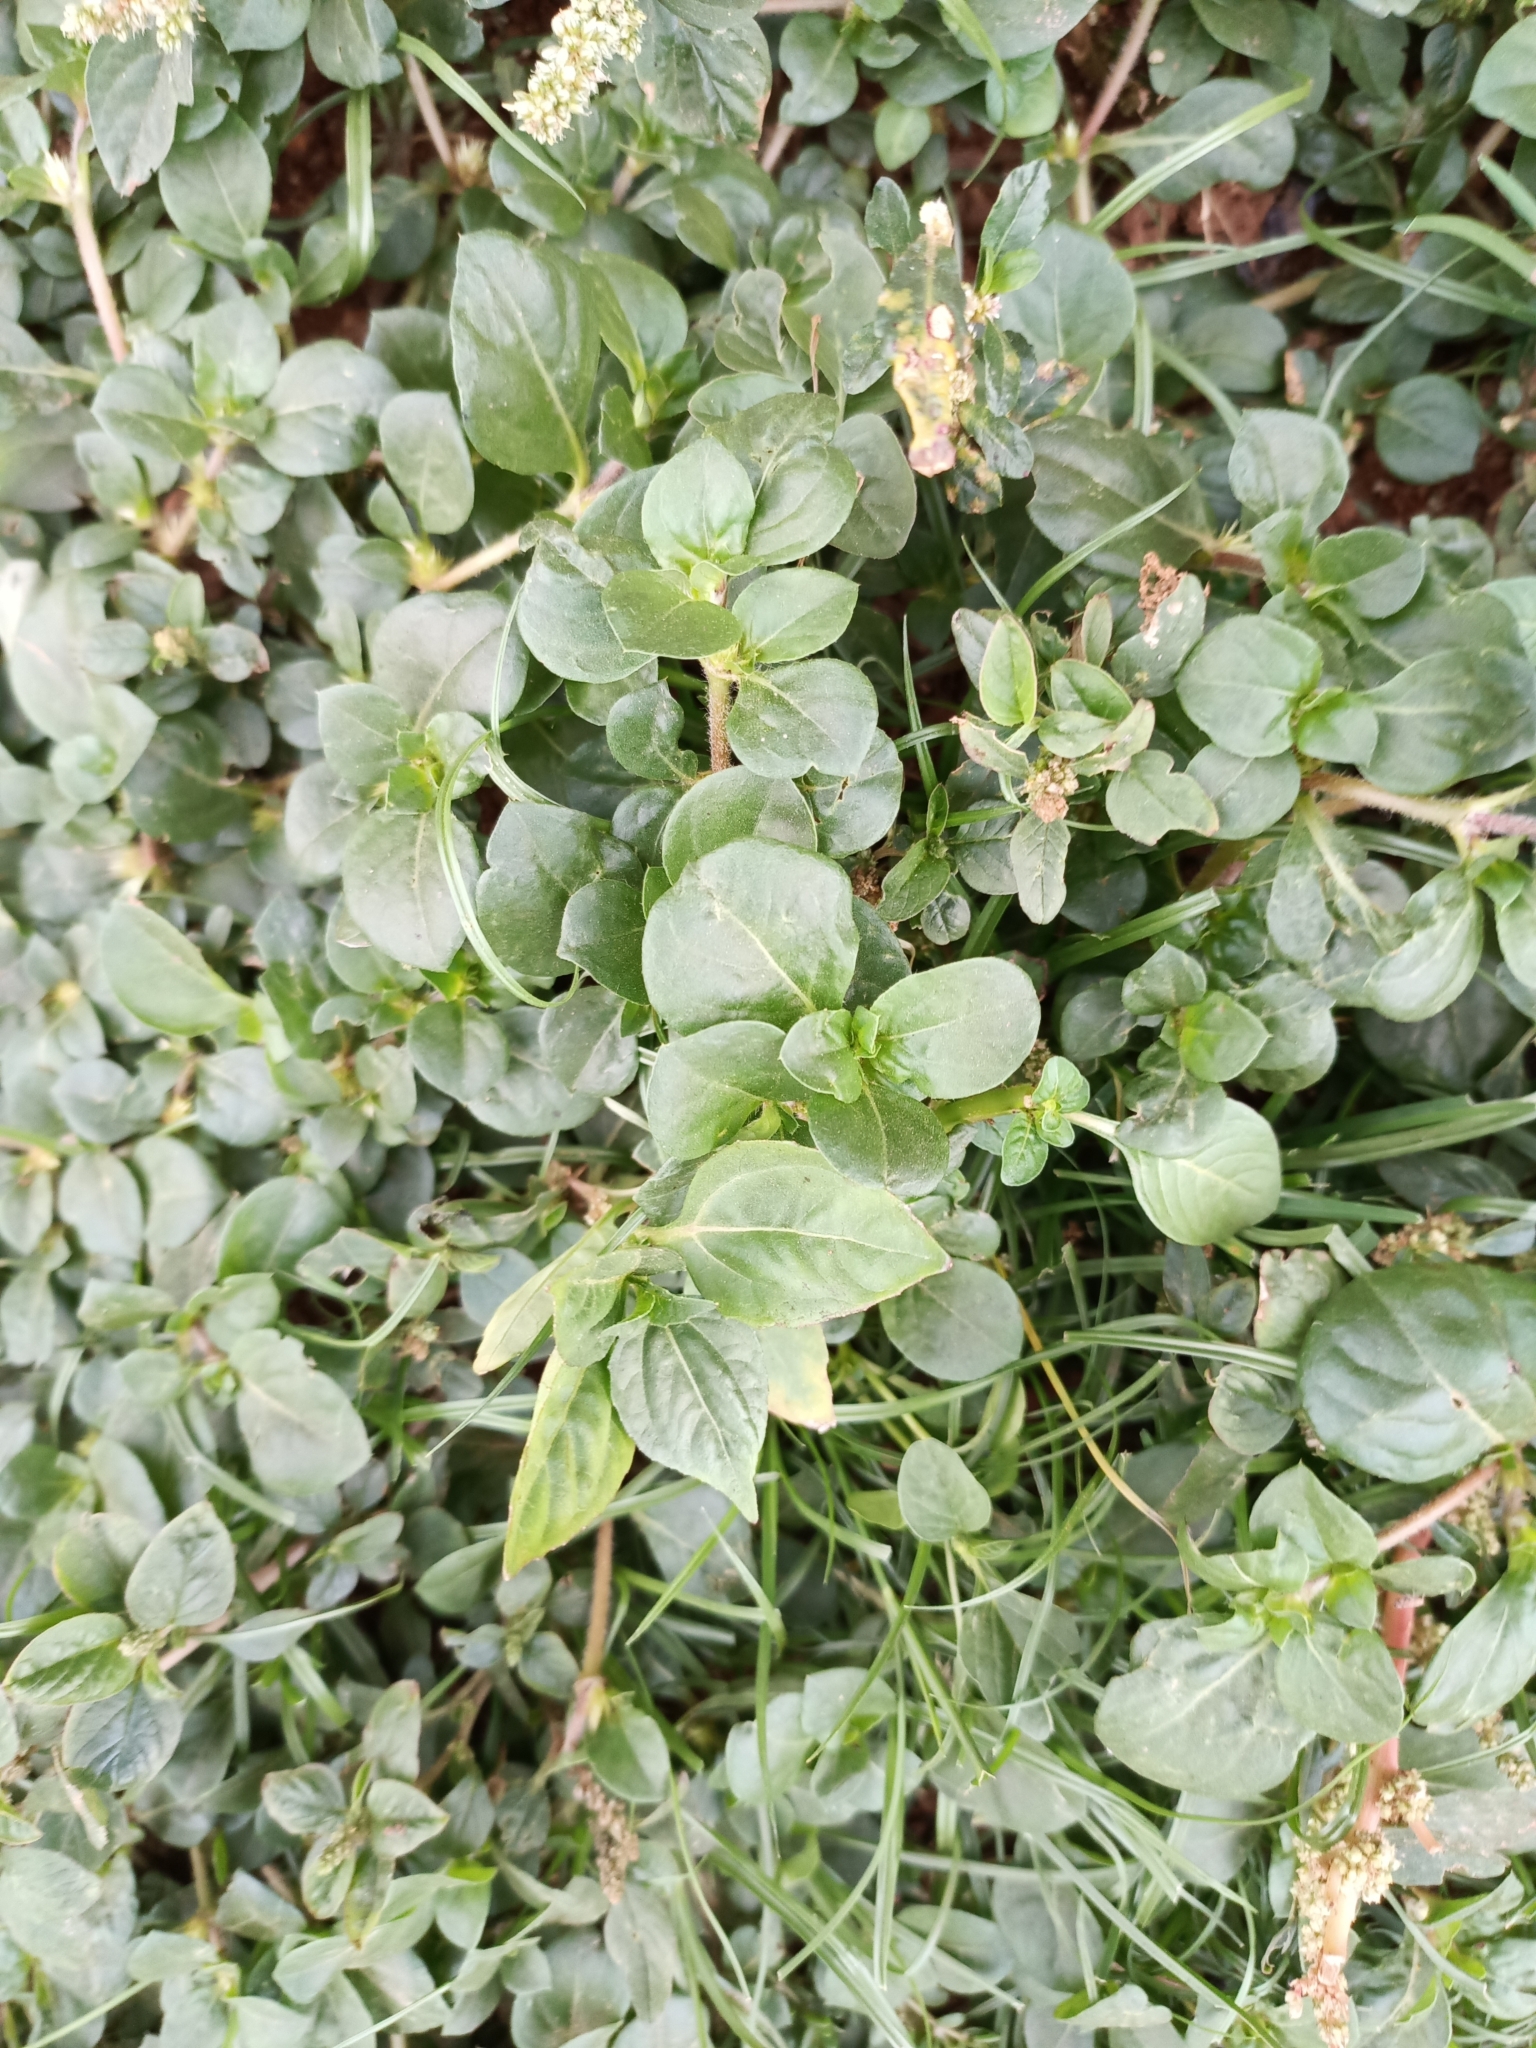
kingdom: Plantae
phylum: Tracheophyta
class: Magnoliopsida
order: Caryophyllales
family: Amaranthaceae
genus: Alternanthera
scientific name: Alternanthera pungens
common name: Khakiweed
